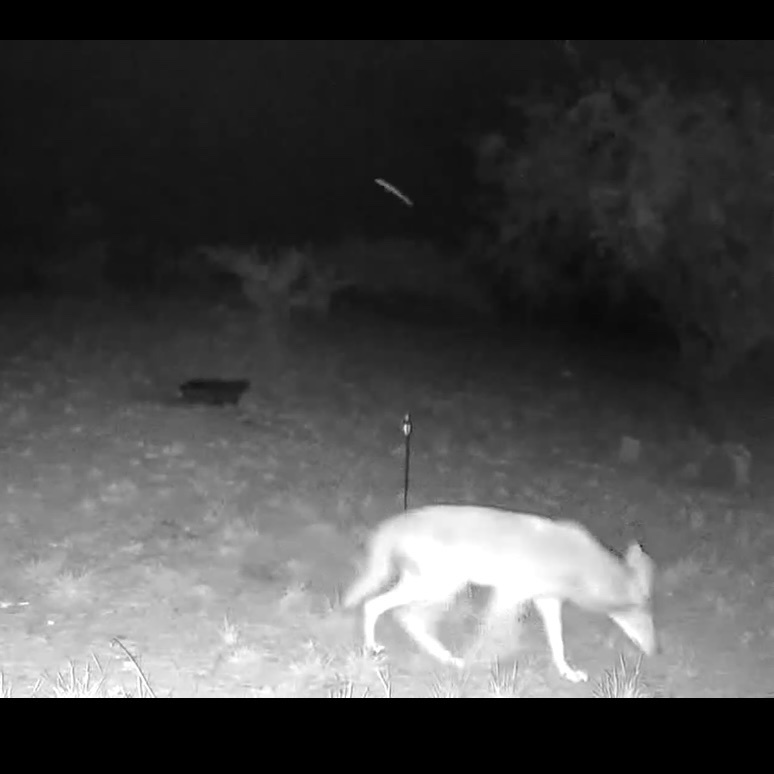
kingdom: Animalia
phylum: Chordata
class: Mammalia
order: Carnivora
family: Canidae
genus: Canis
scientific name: Canis latrans
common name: Coyote
